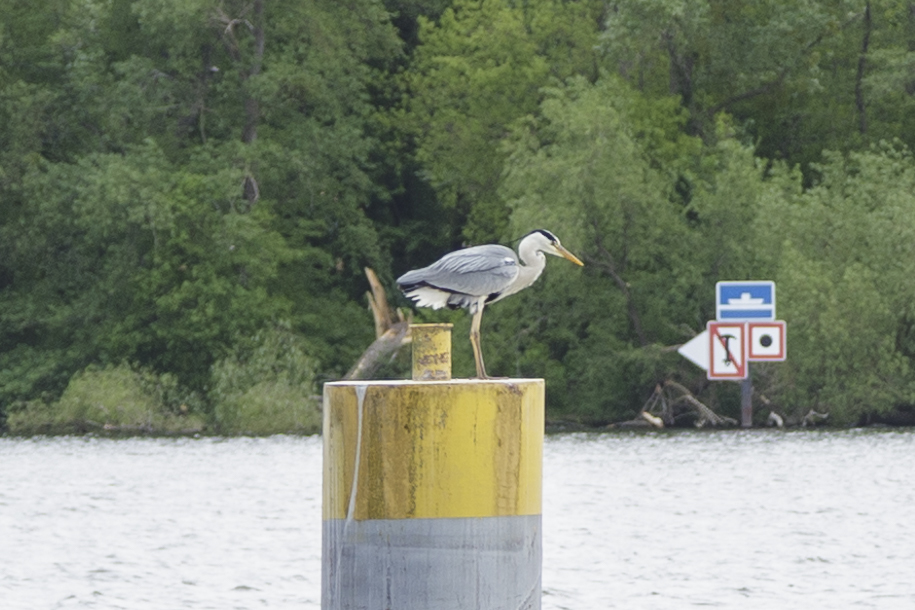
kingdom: Animalia
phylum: Chordata
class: Aves
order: Pelecaniformes
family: Ardeidae
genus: Ardea
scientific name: Ardea cinerea
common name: Grey heron
